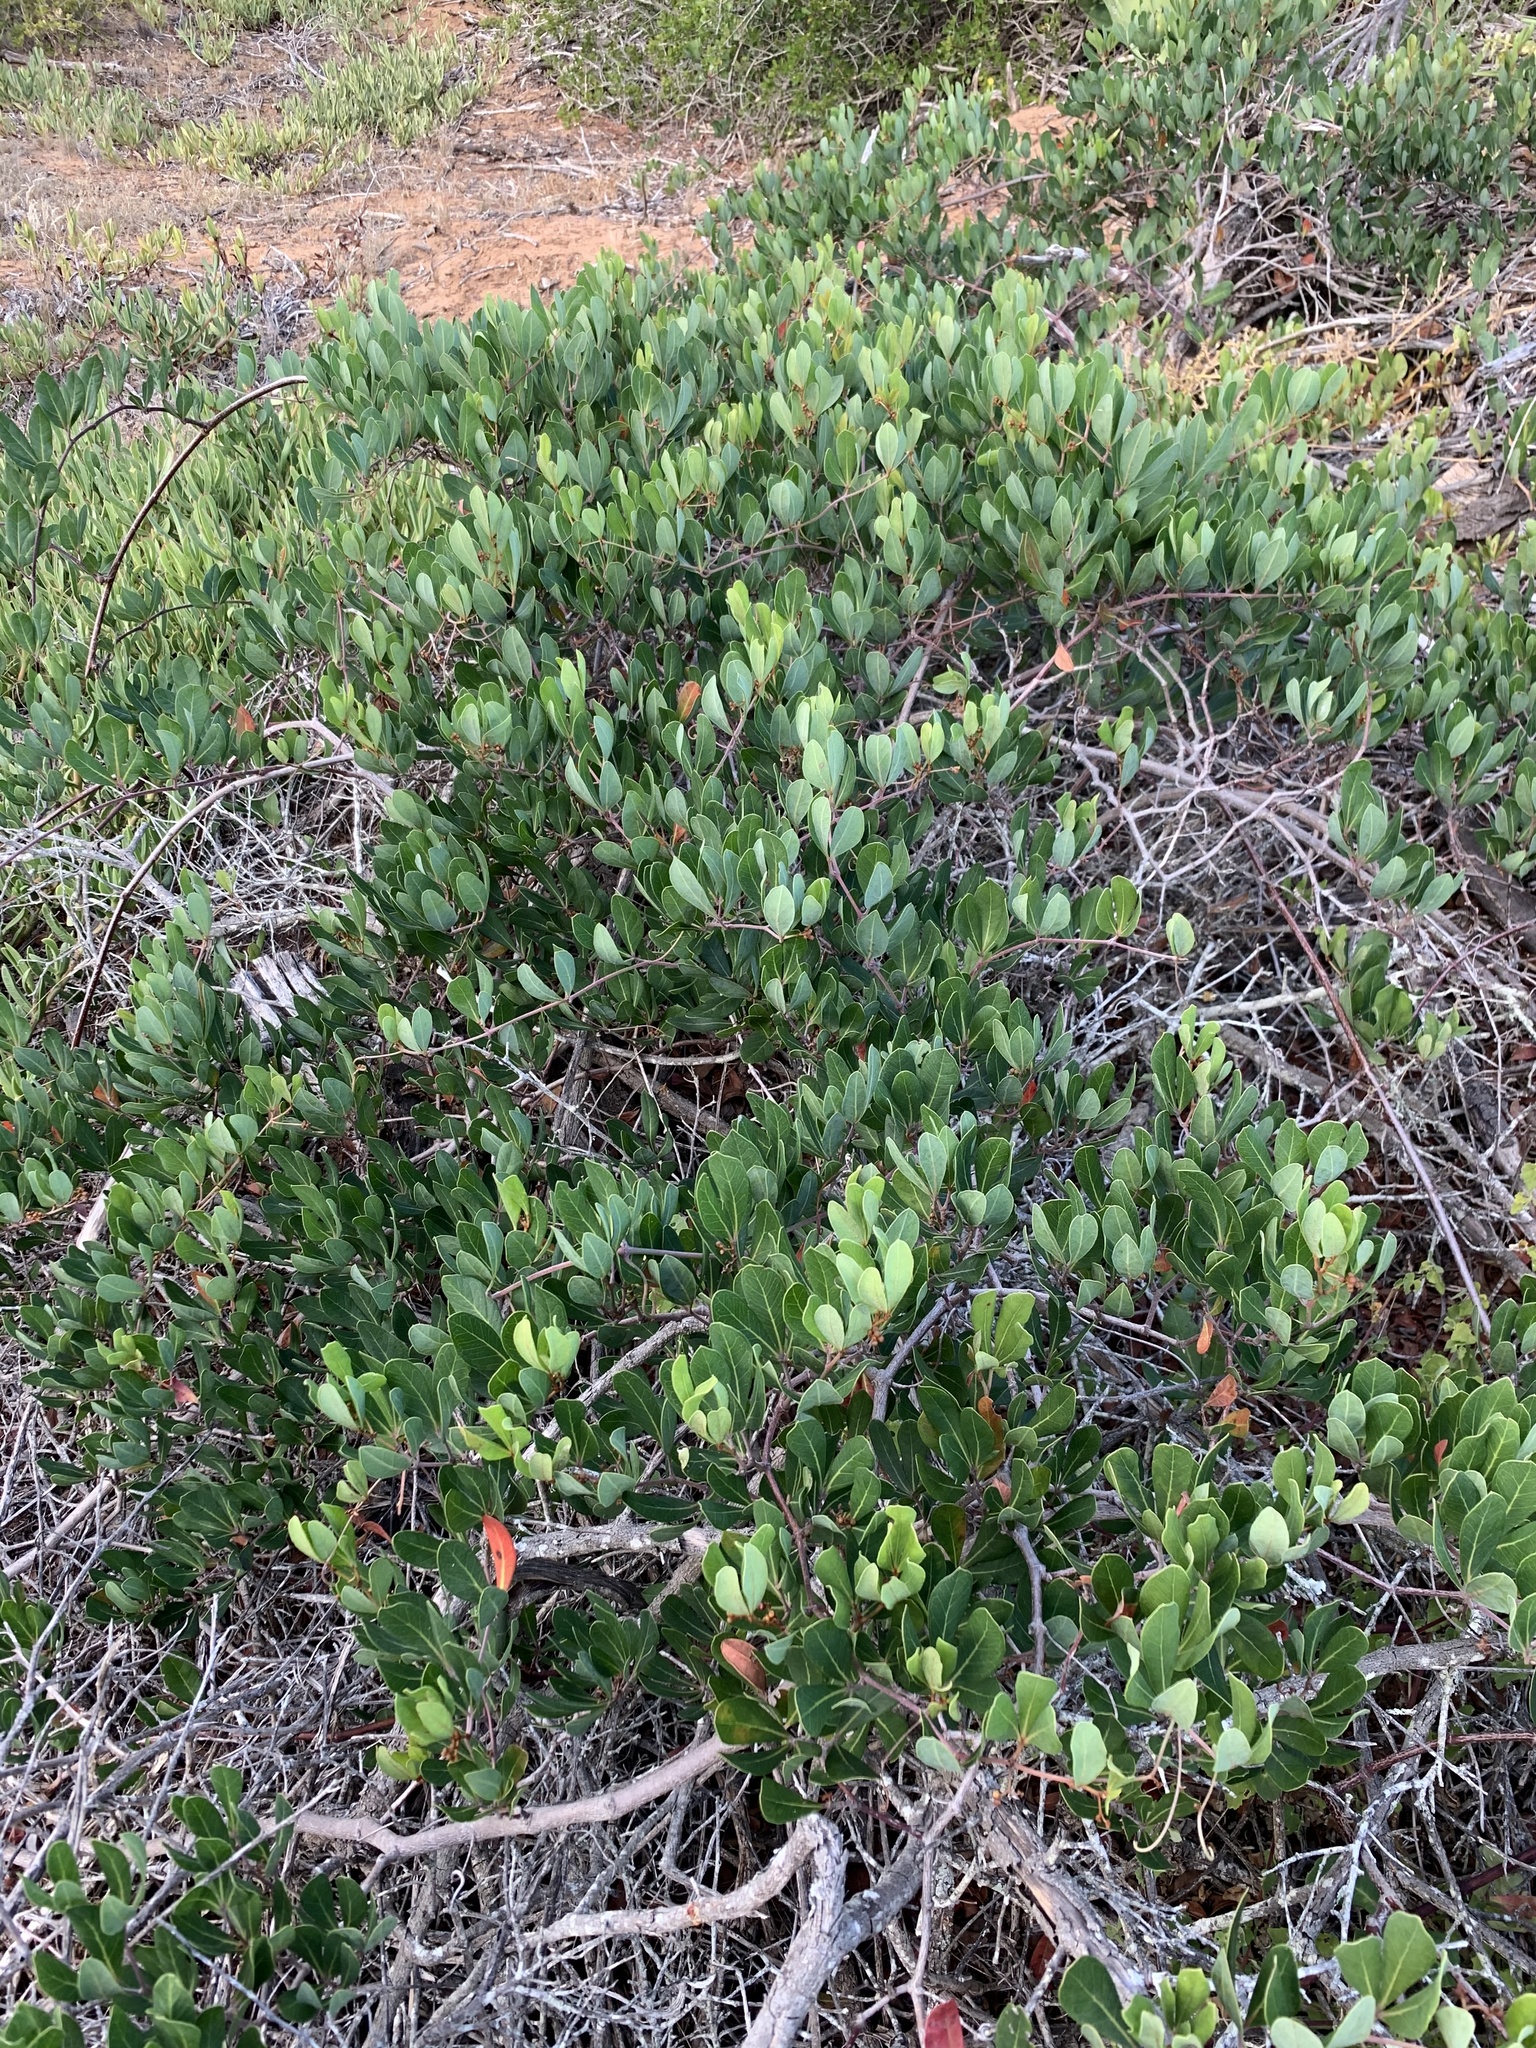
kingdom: Plantae
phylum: Tracheophyta
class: Magnoliopsida
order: Vitales
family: Vitaceae
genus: Rhoicissus
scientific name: Rhoicissus digitata
